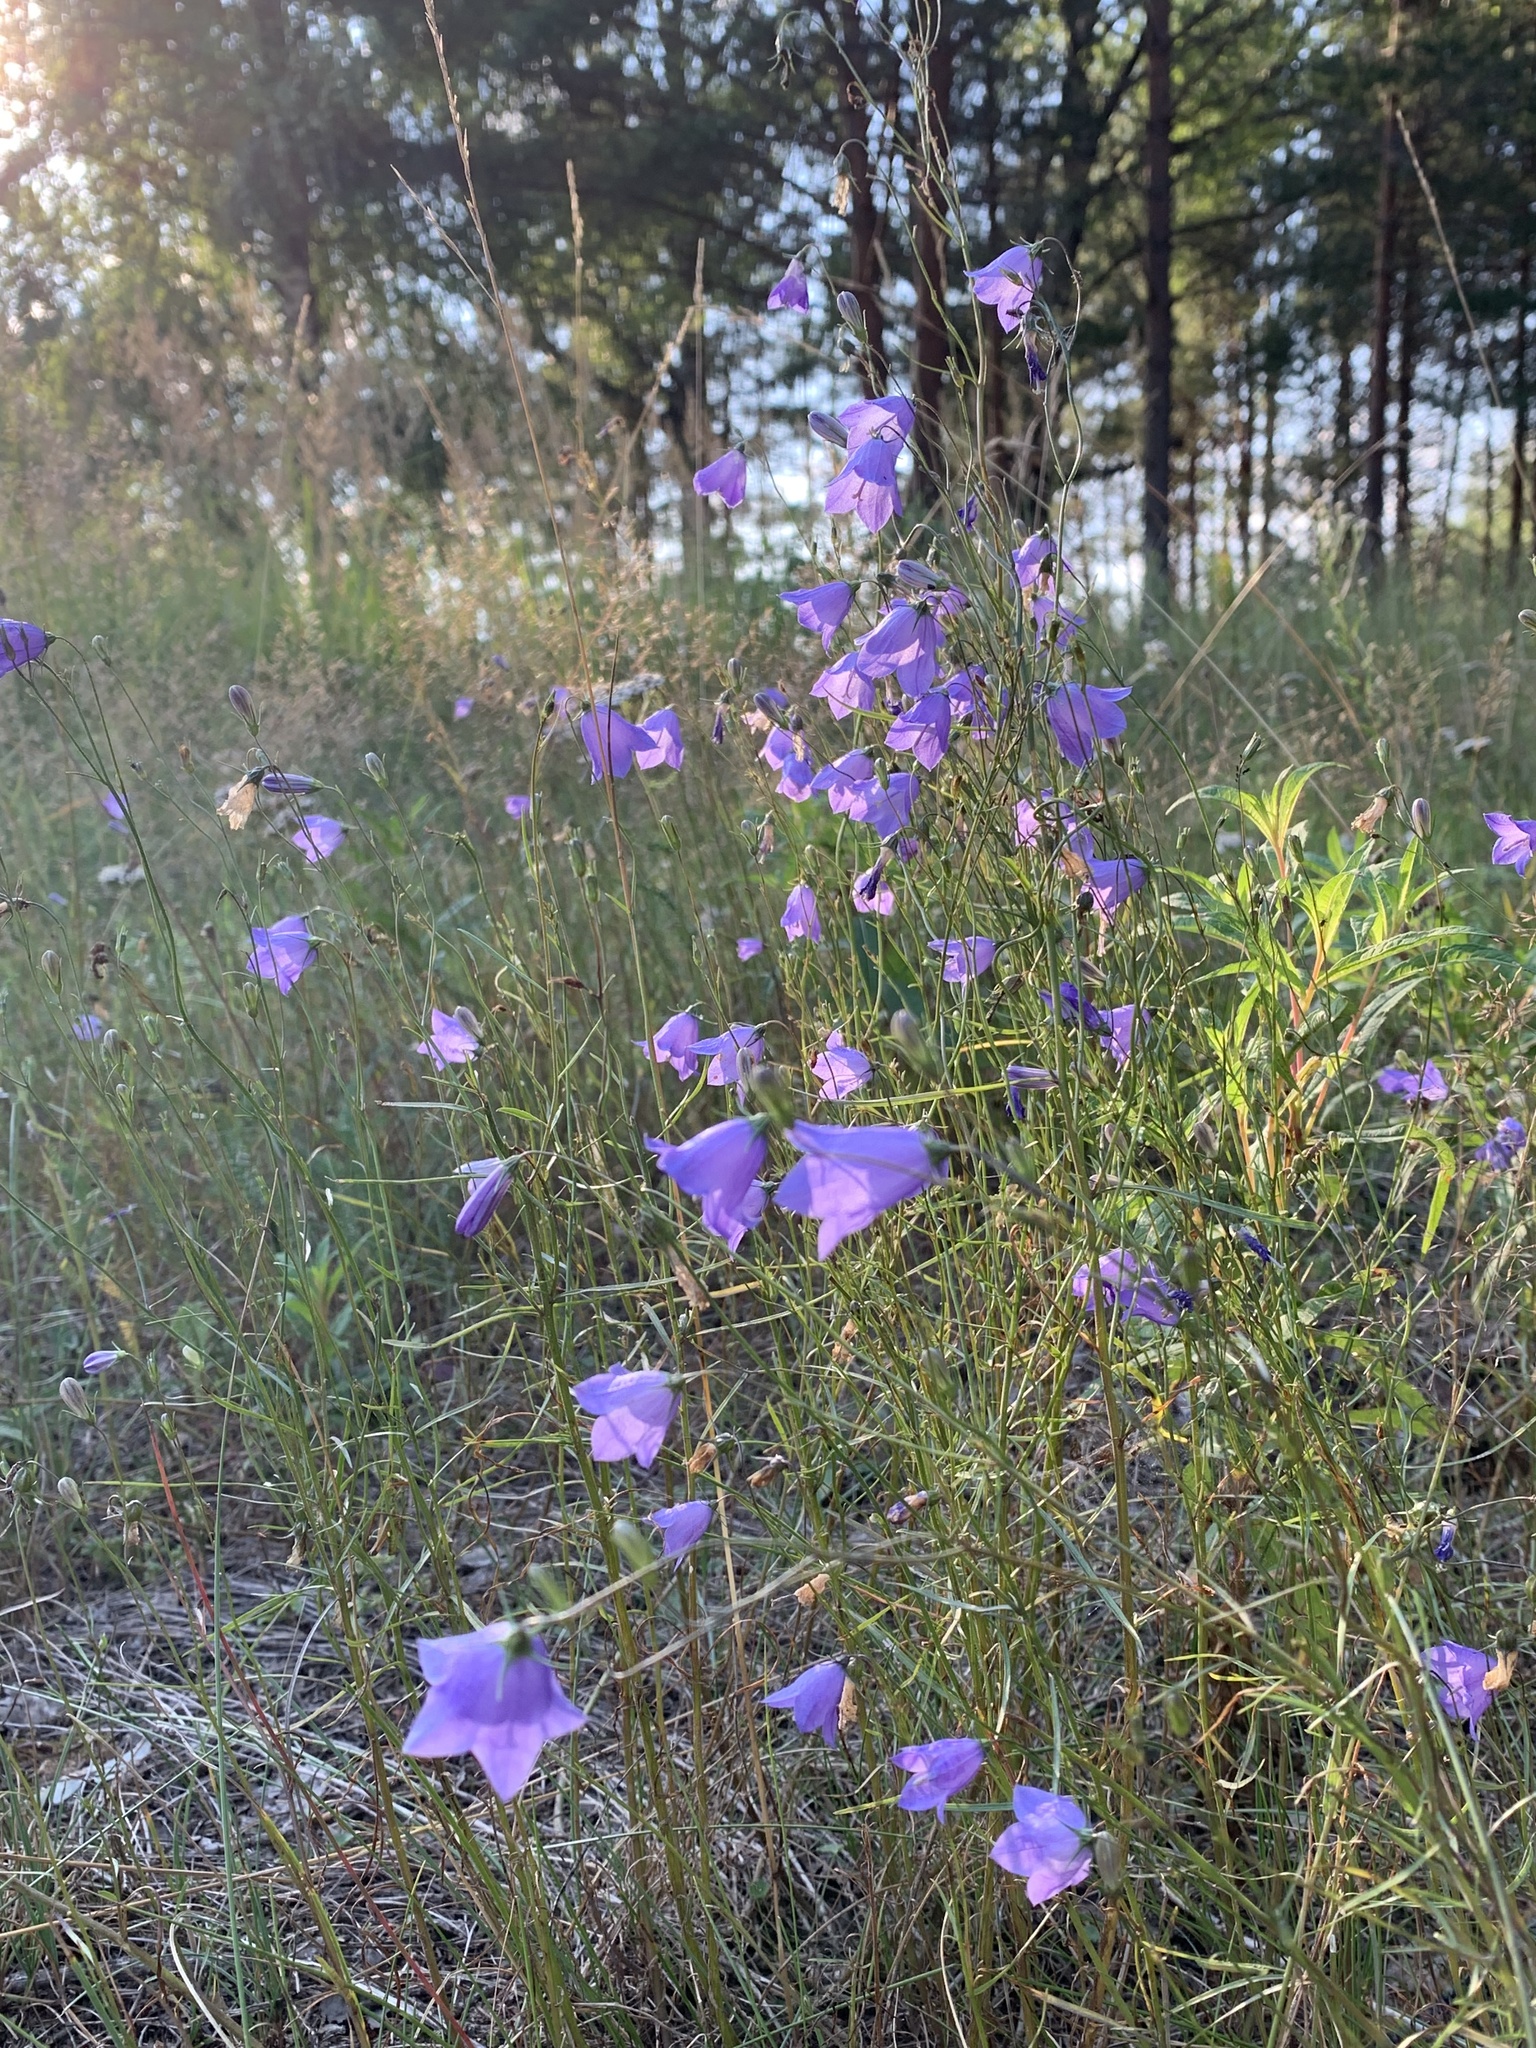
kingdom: Plantae
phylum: Tracheophyta
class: Magnoliopsida
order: Asterales
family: Campanulaceae
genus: Campanula
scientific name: Campanula rotundifolia
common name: Harebell
